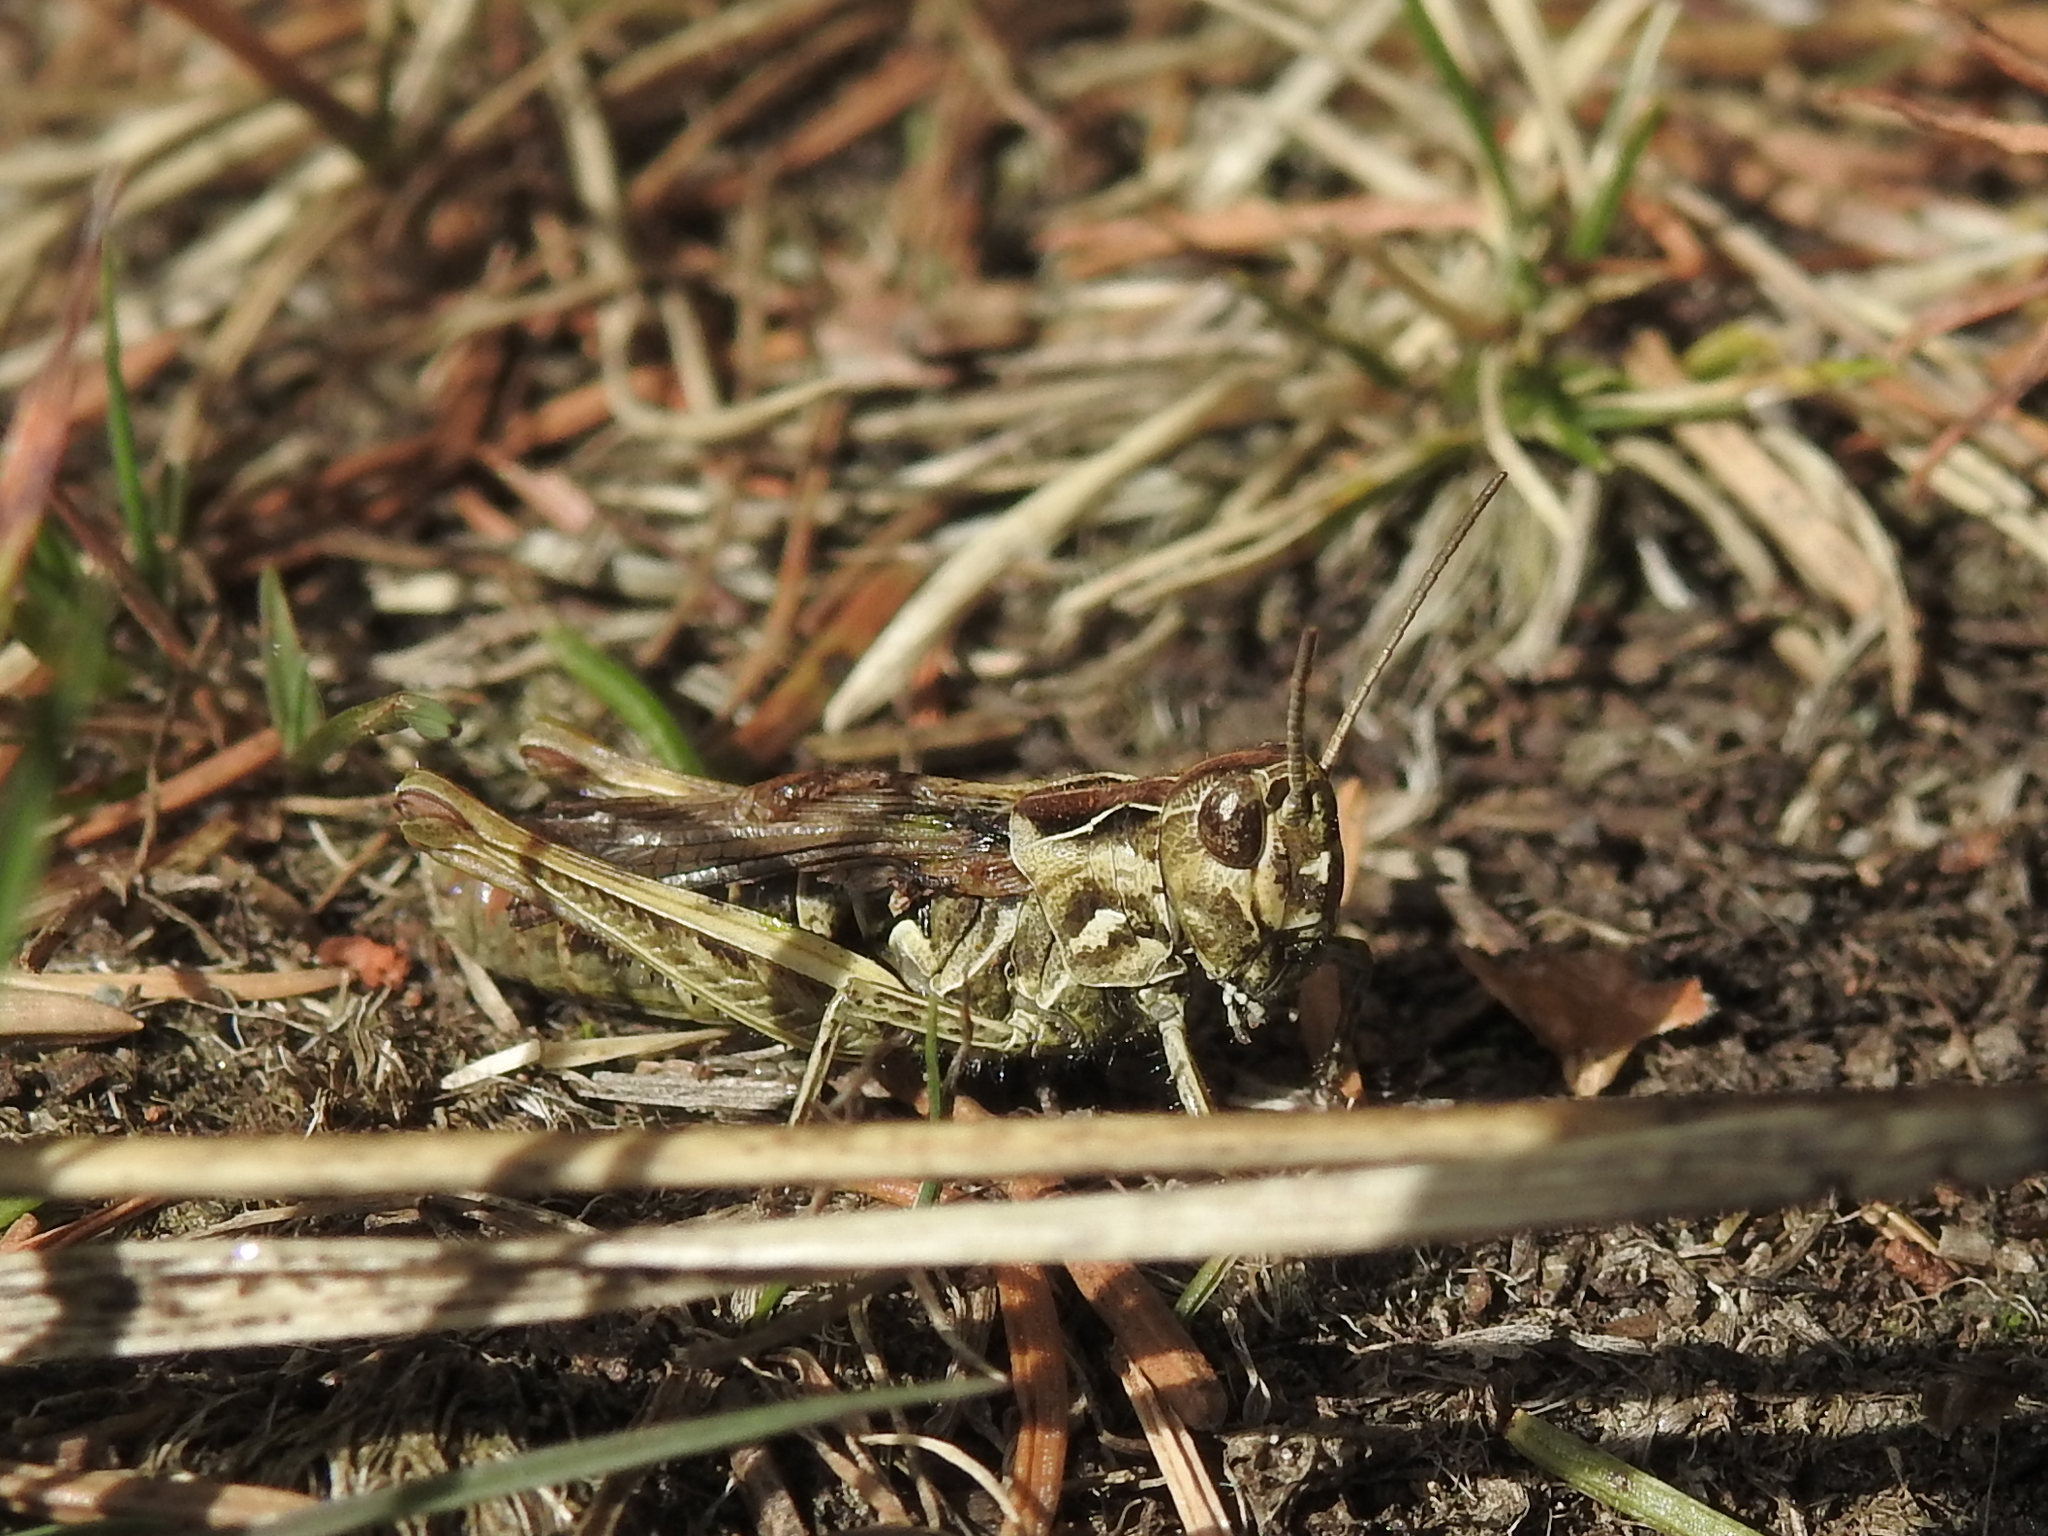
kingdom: Animalia
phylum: Arthropoda
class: Insecta
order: Orthoptera
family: Acrididae
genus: Chorthippus
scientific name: Chorthippus brunneus
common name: Field grasshopper
